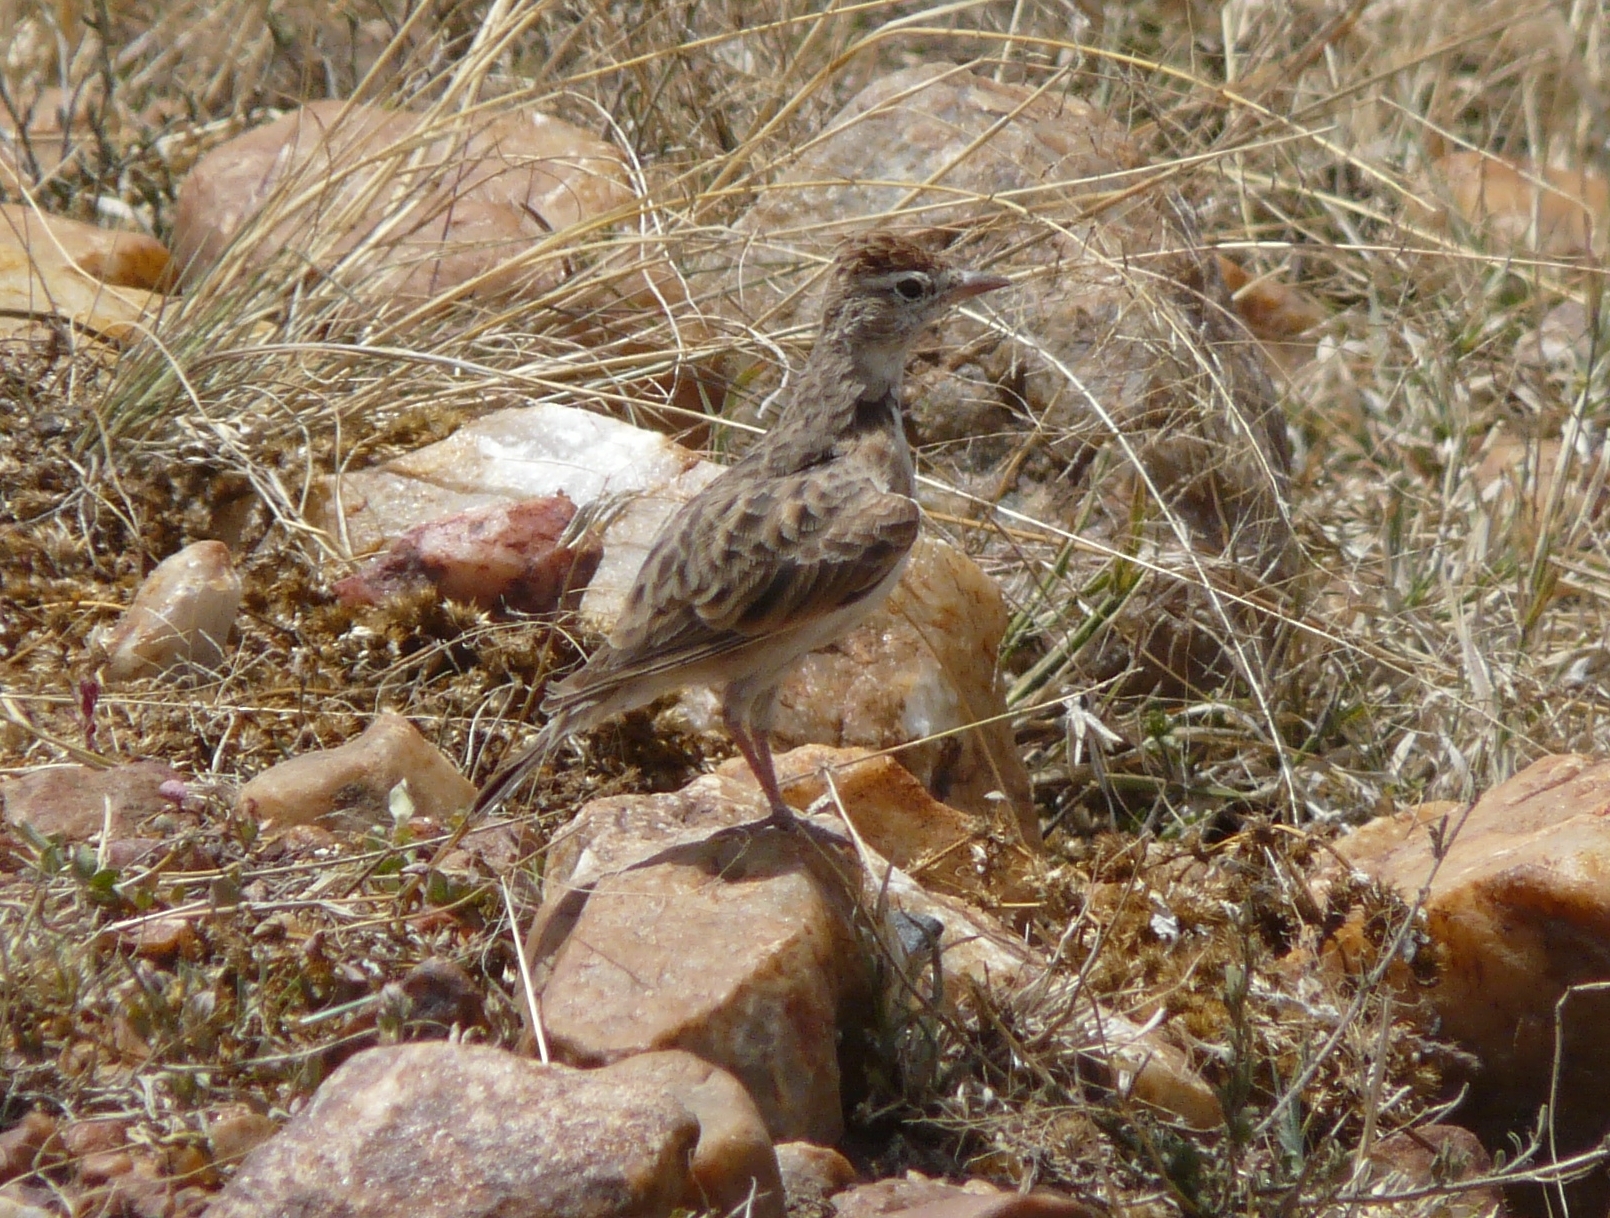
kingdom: Animalia
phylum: Chordata
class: Aves
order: Passeriformes
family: Alaudidae
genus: Calandrella
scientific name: Calandrella cinerea
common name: Red-capped lark
